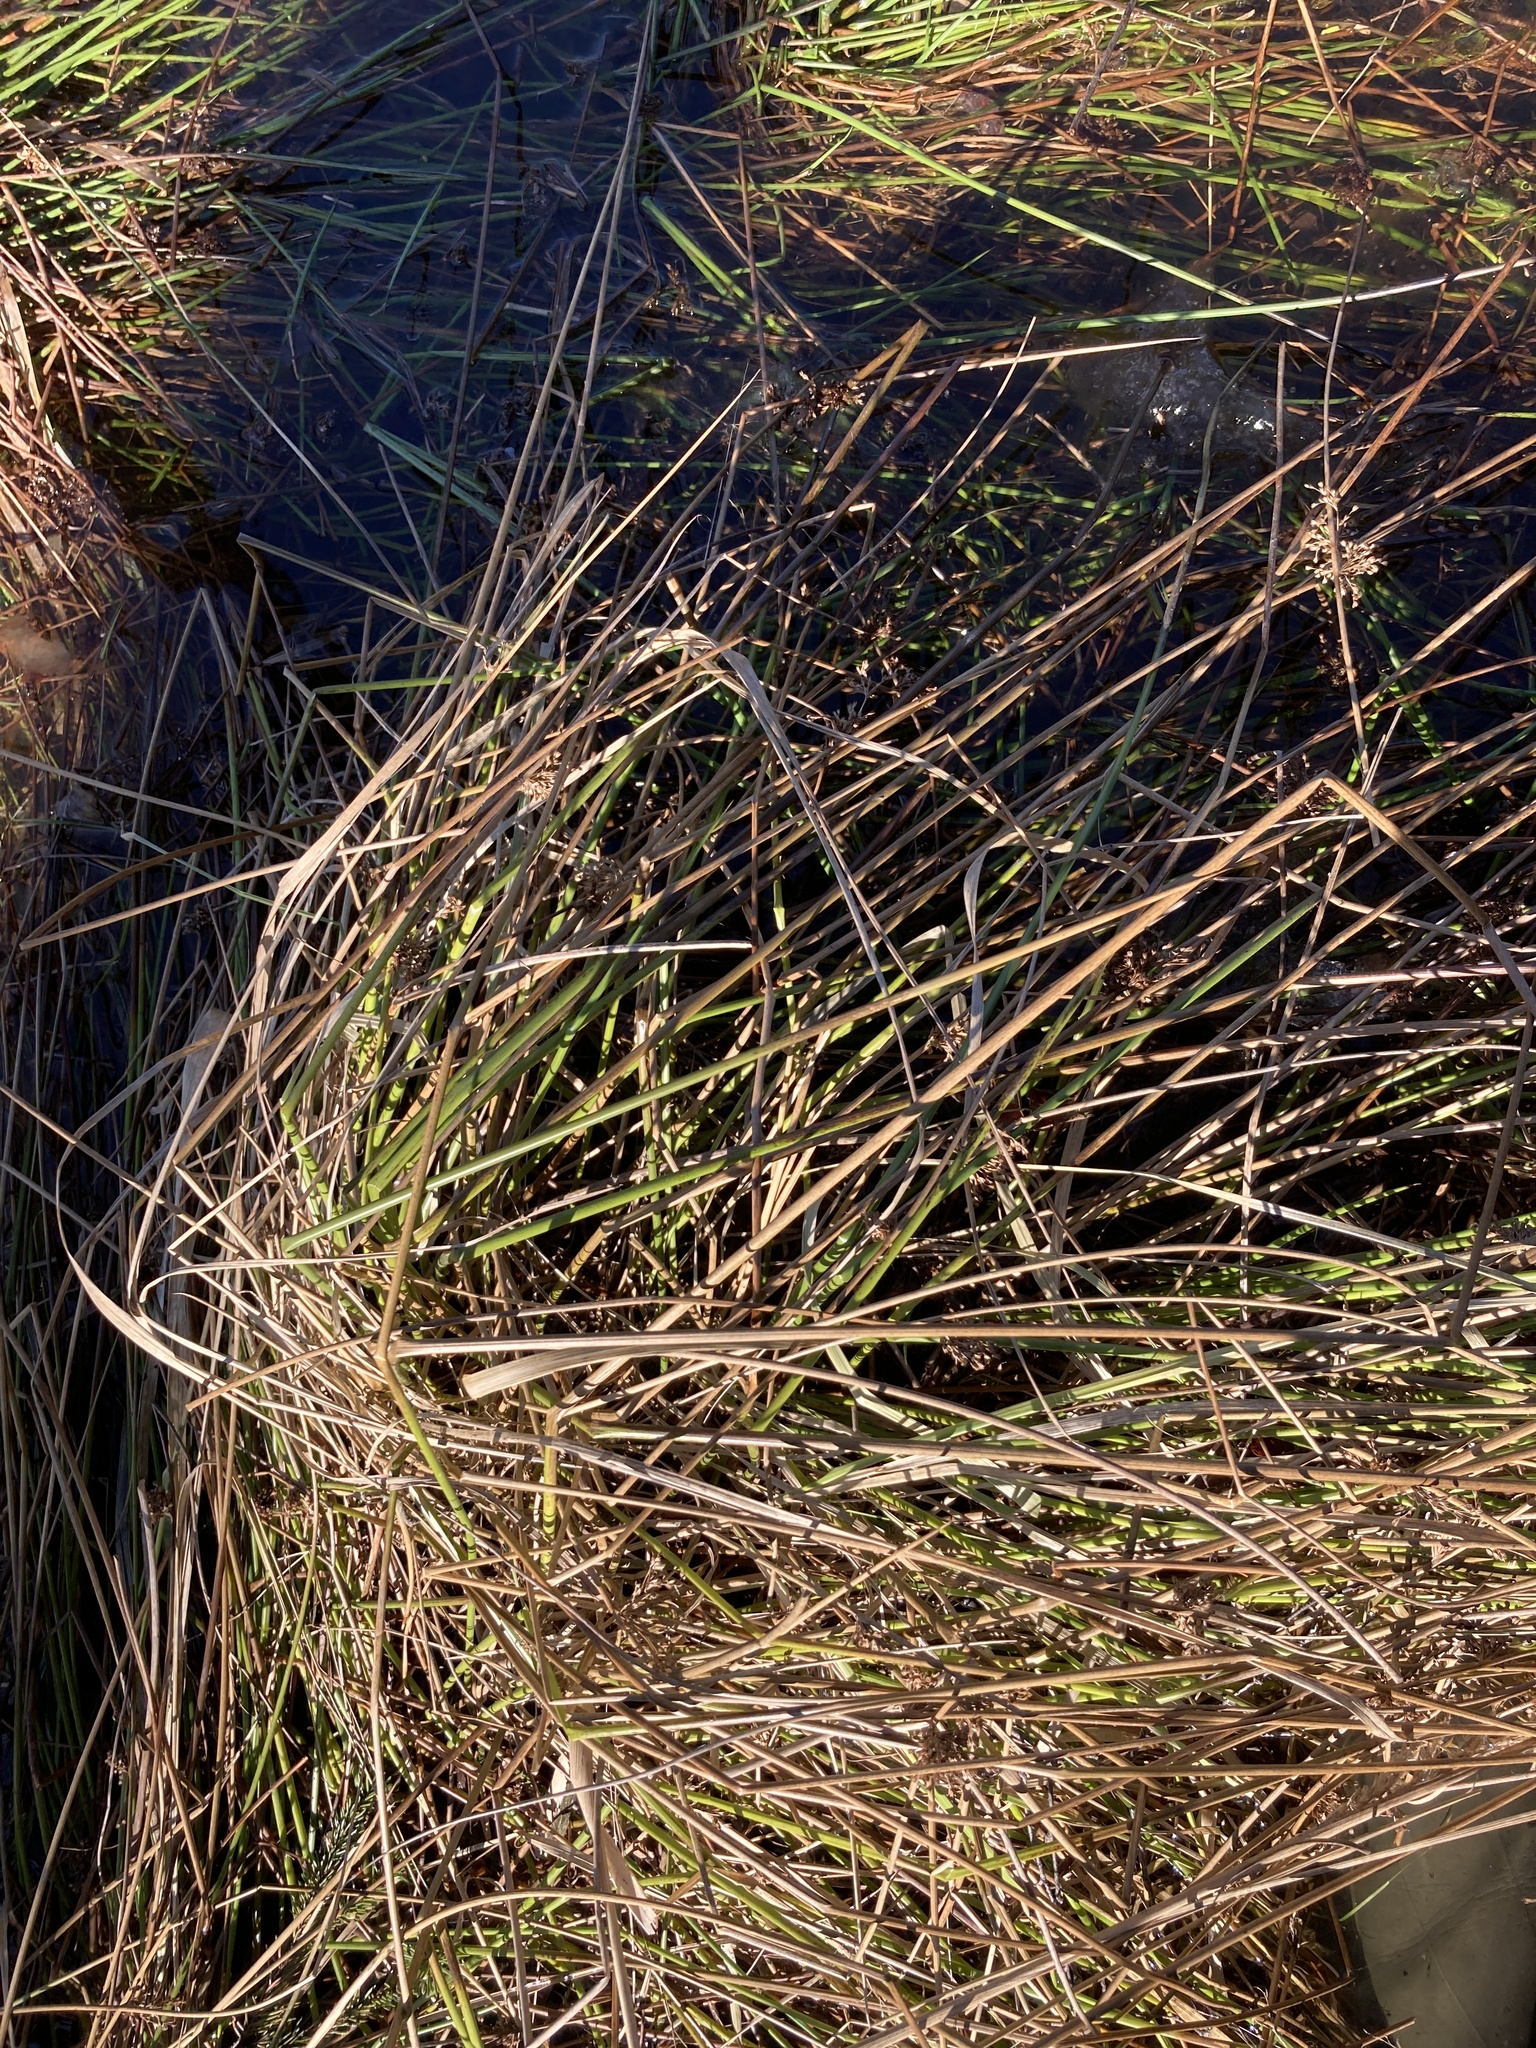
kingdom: Plantae
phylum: Tracheophyta
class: Liliopsida
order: Poales
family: Juncaceae
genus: Juncus
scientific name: Juncus effusus
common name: Soft rush
